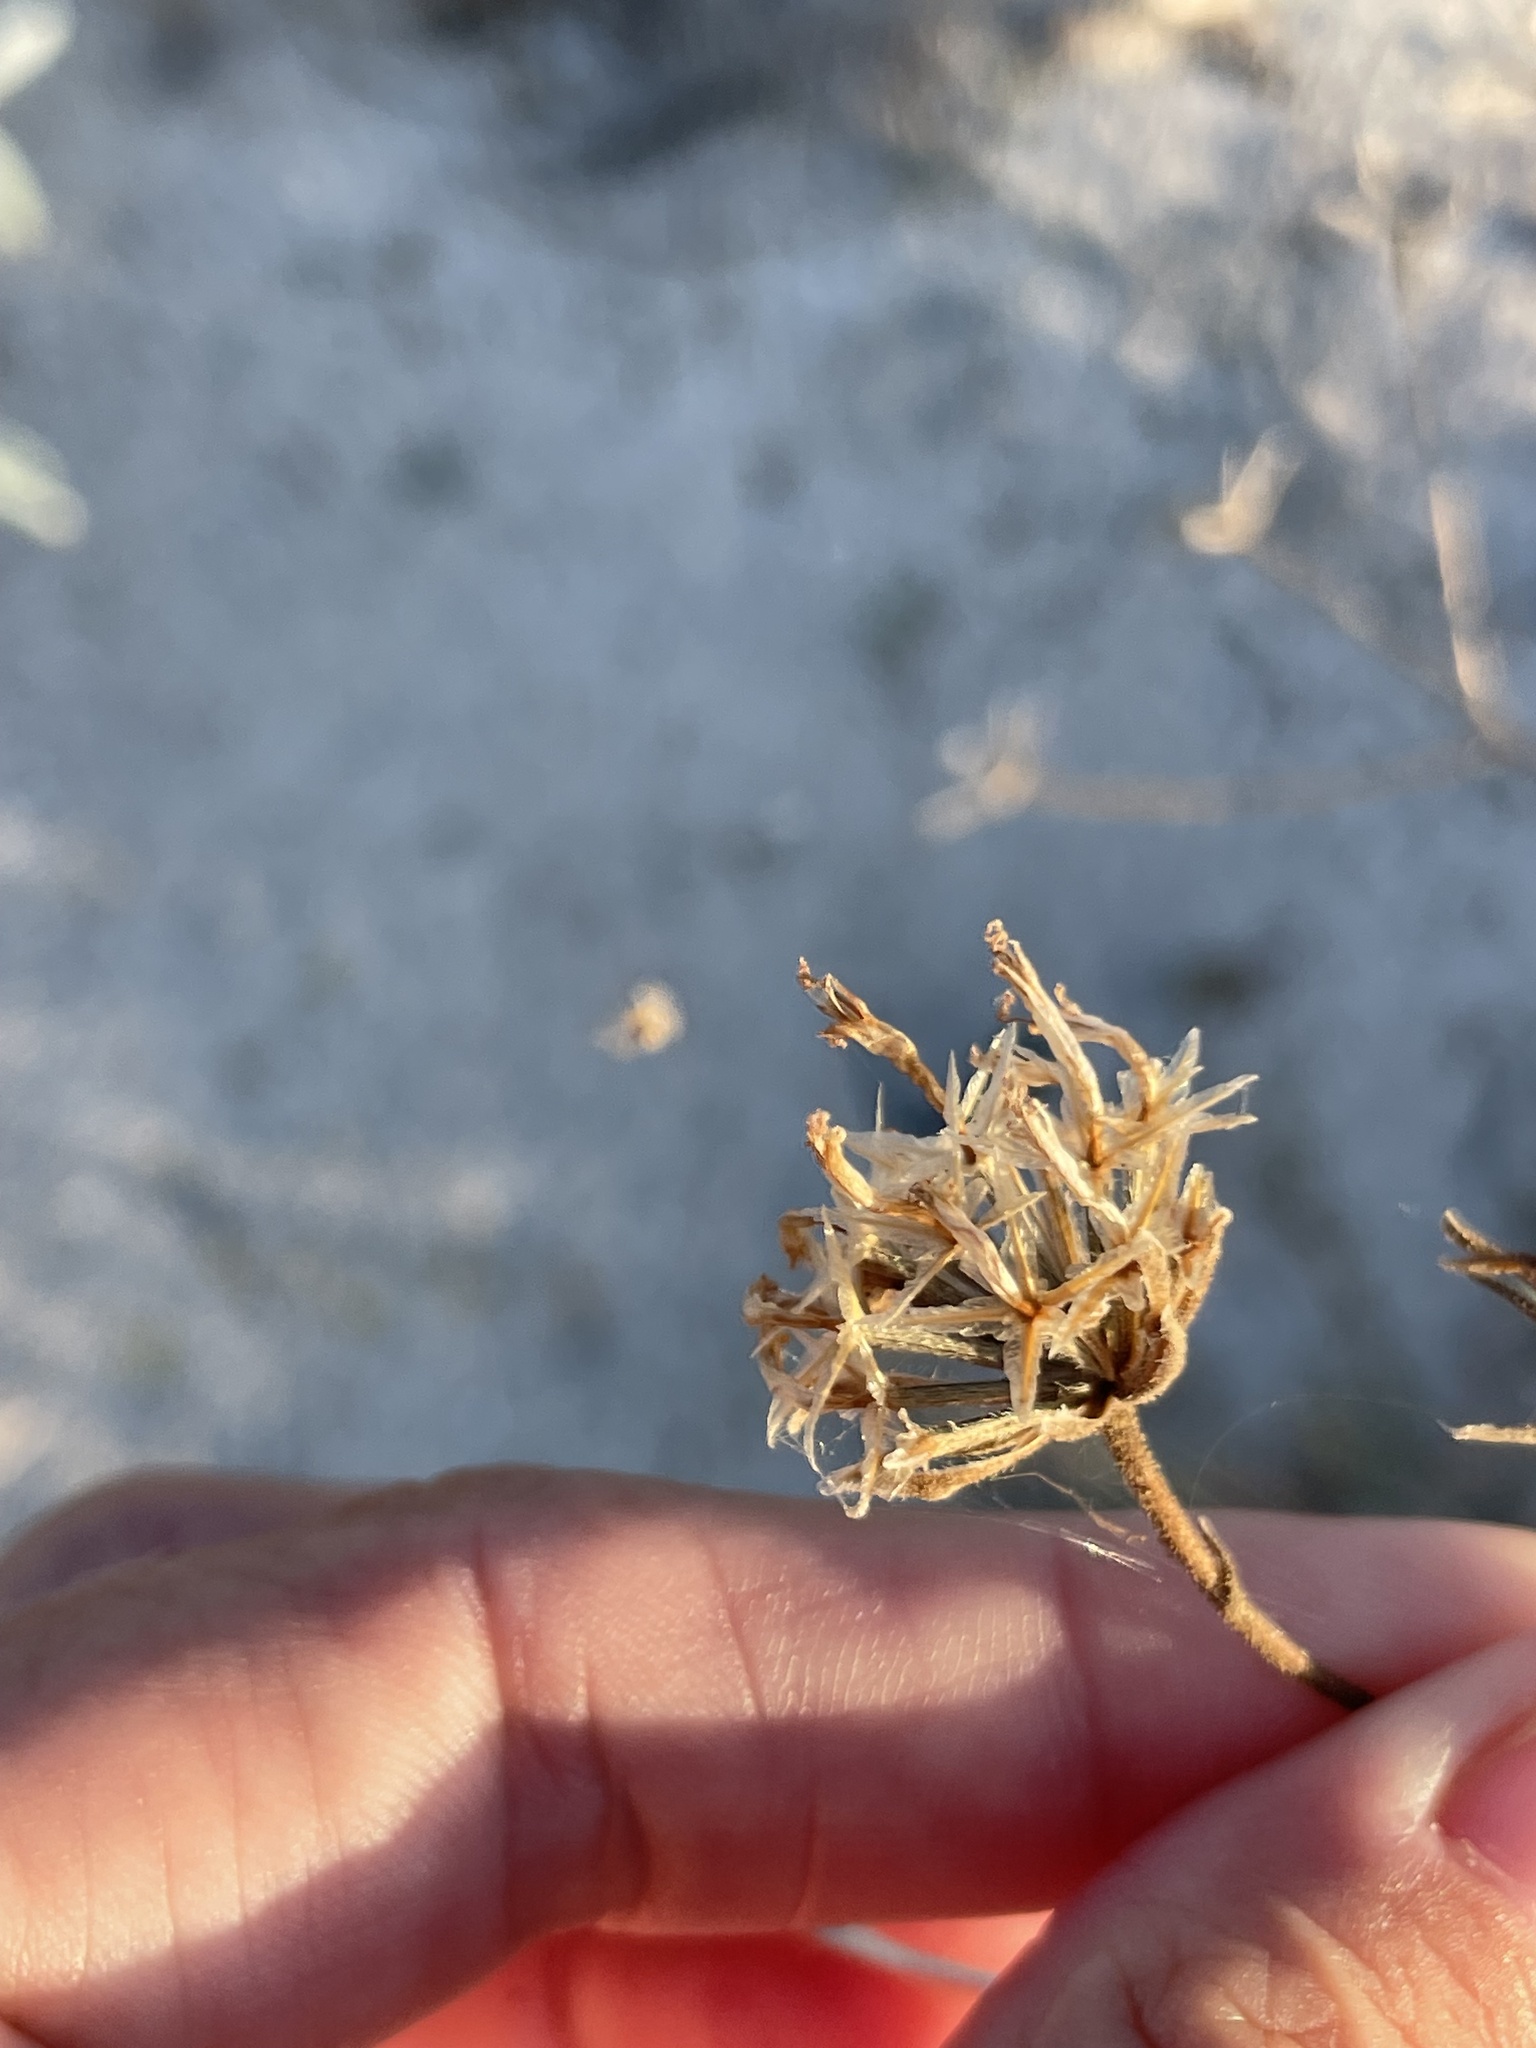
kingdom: Plantae
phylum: Tracheophyta
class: Magnoliopsida
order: Asterales
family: Asteraceae
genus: Palafoxia
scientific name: Palafoxia linearis
